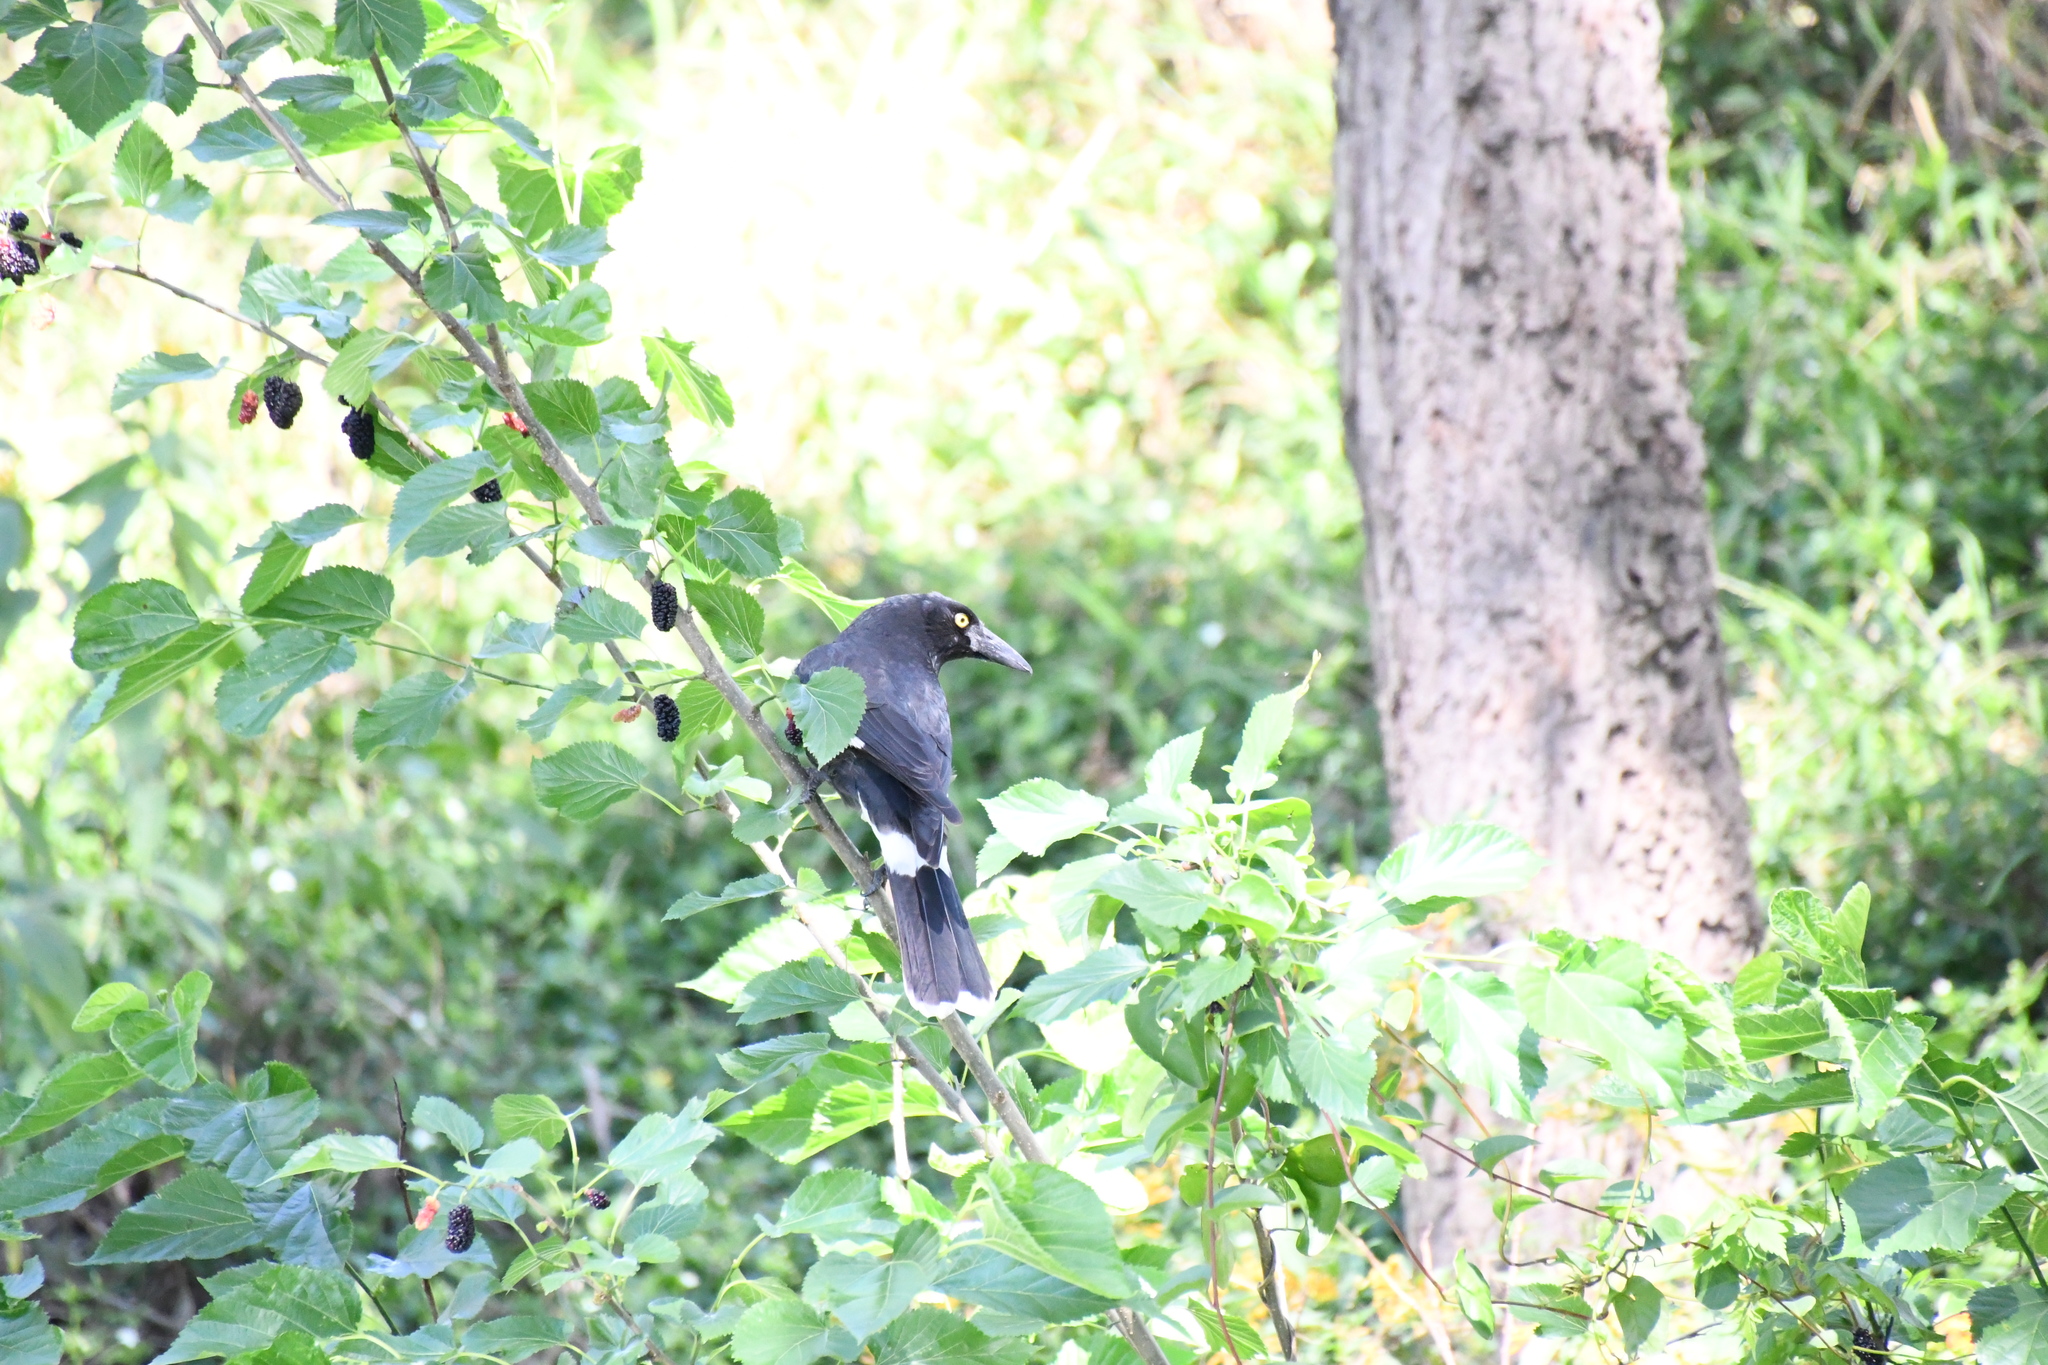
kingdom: Animalia
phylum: Chordata
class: Aves
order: Passeriformes
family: Cracticidae
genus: Strepera
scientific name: Strepera graculina
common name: Pied currawong
